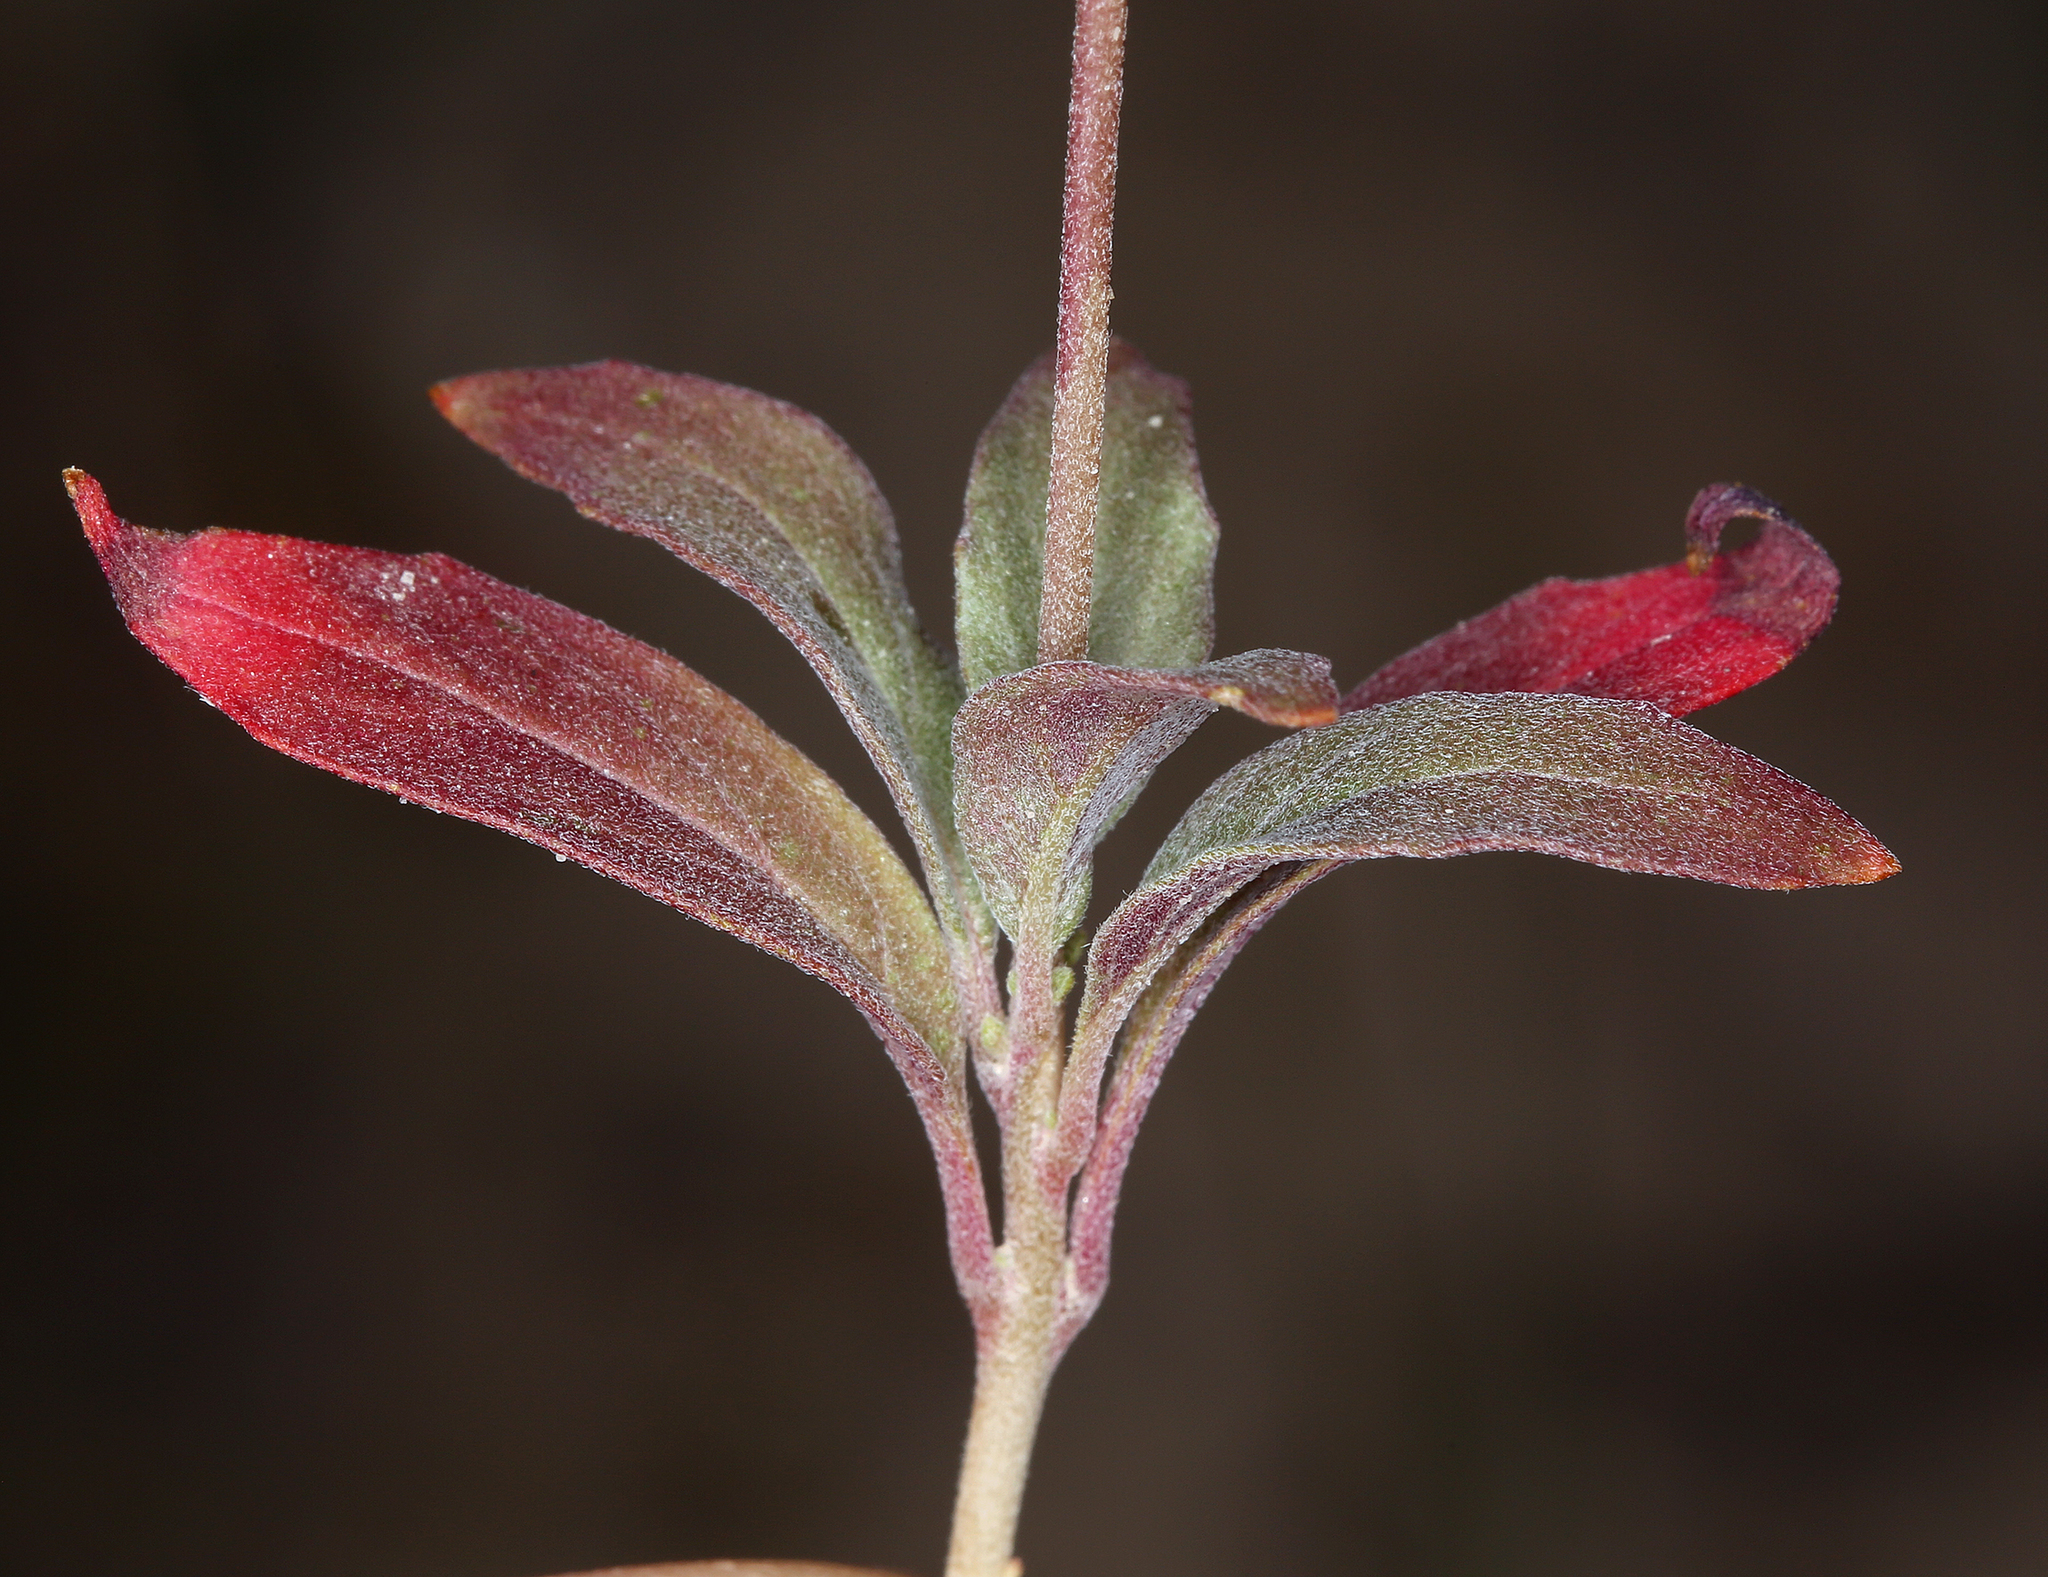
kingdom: Plantae
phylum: Tracheophyta
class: Magnoliopsida
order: Myrtales
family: Onagraceae
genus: Eremothera
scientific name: Eremothera boothii
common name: Booth's evening primrose
